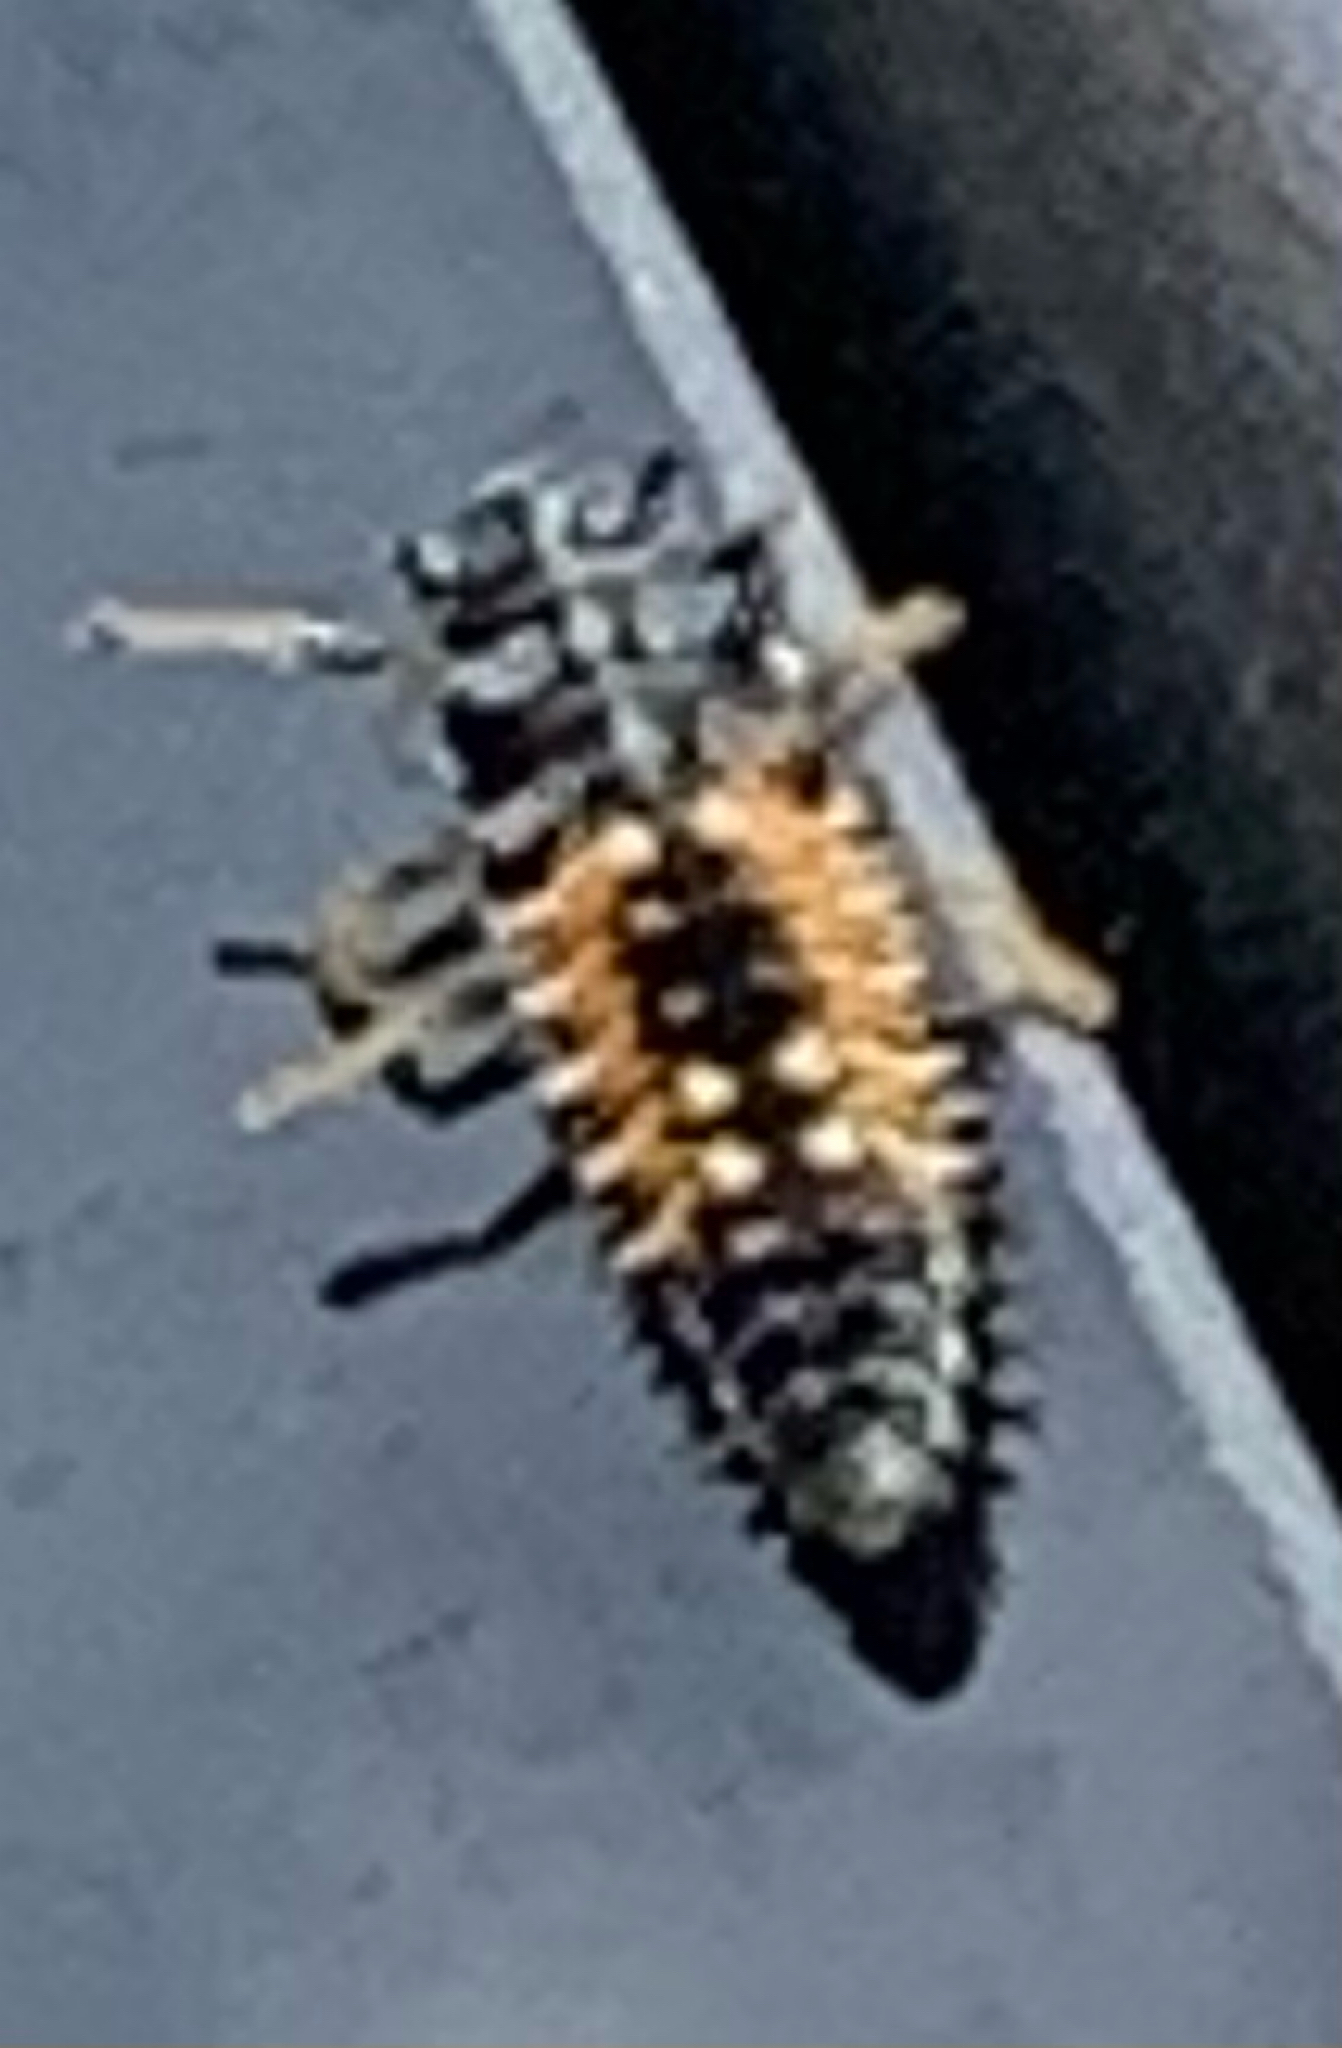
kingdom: Animalia
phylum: Arthropoda
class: Insecta
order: Coleoptera
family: Coccinellidae
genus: Harmonia
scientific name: Harmonia axyridis
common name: Harlequin ladybird
